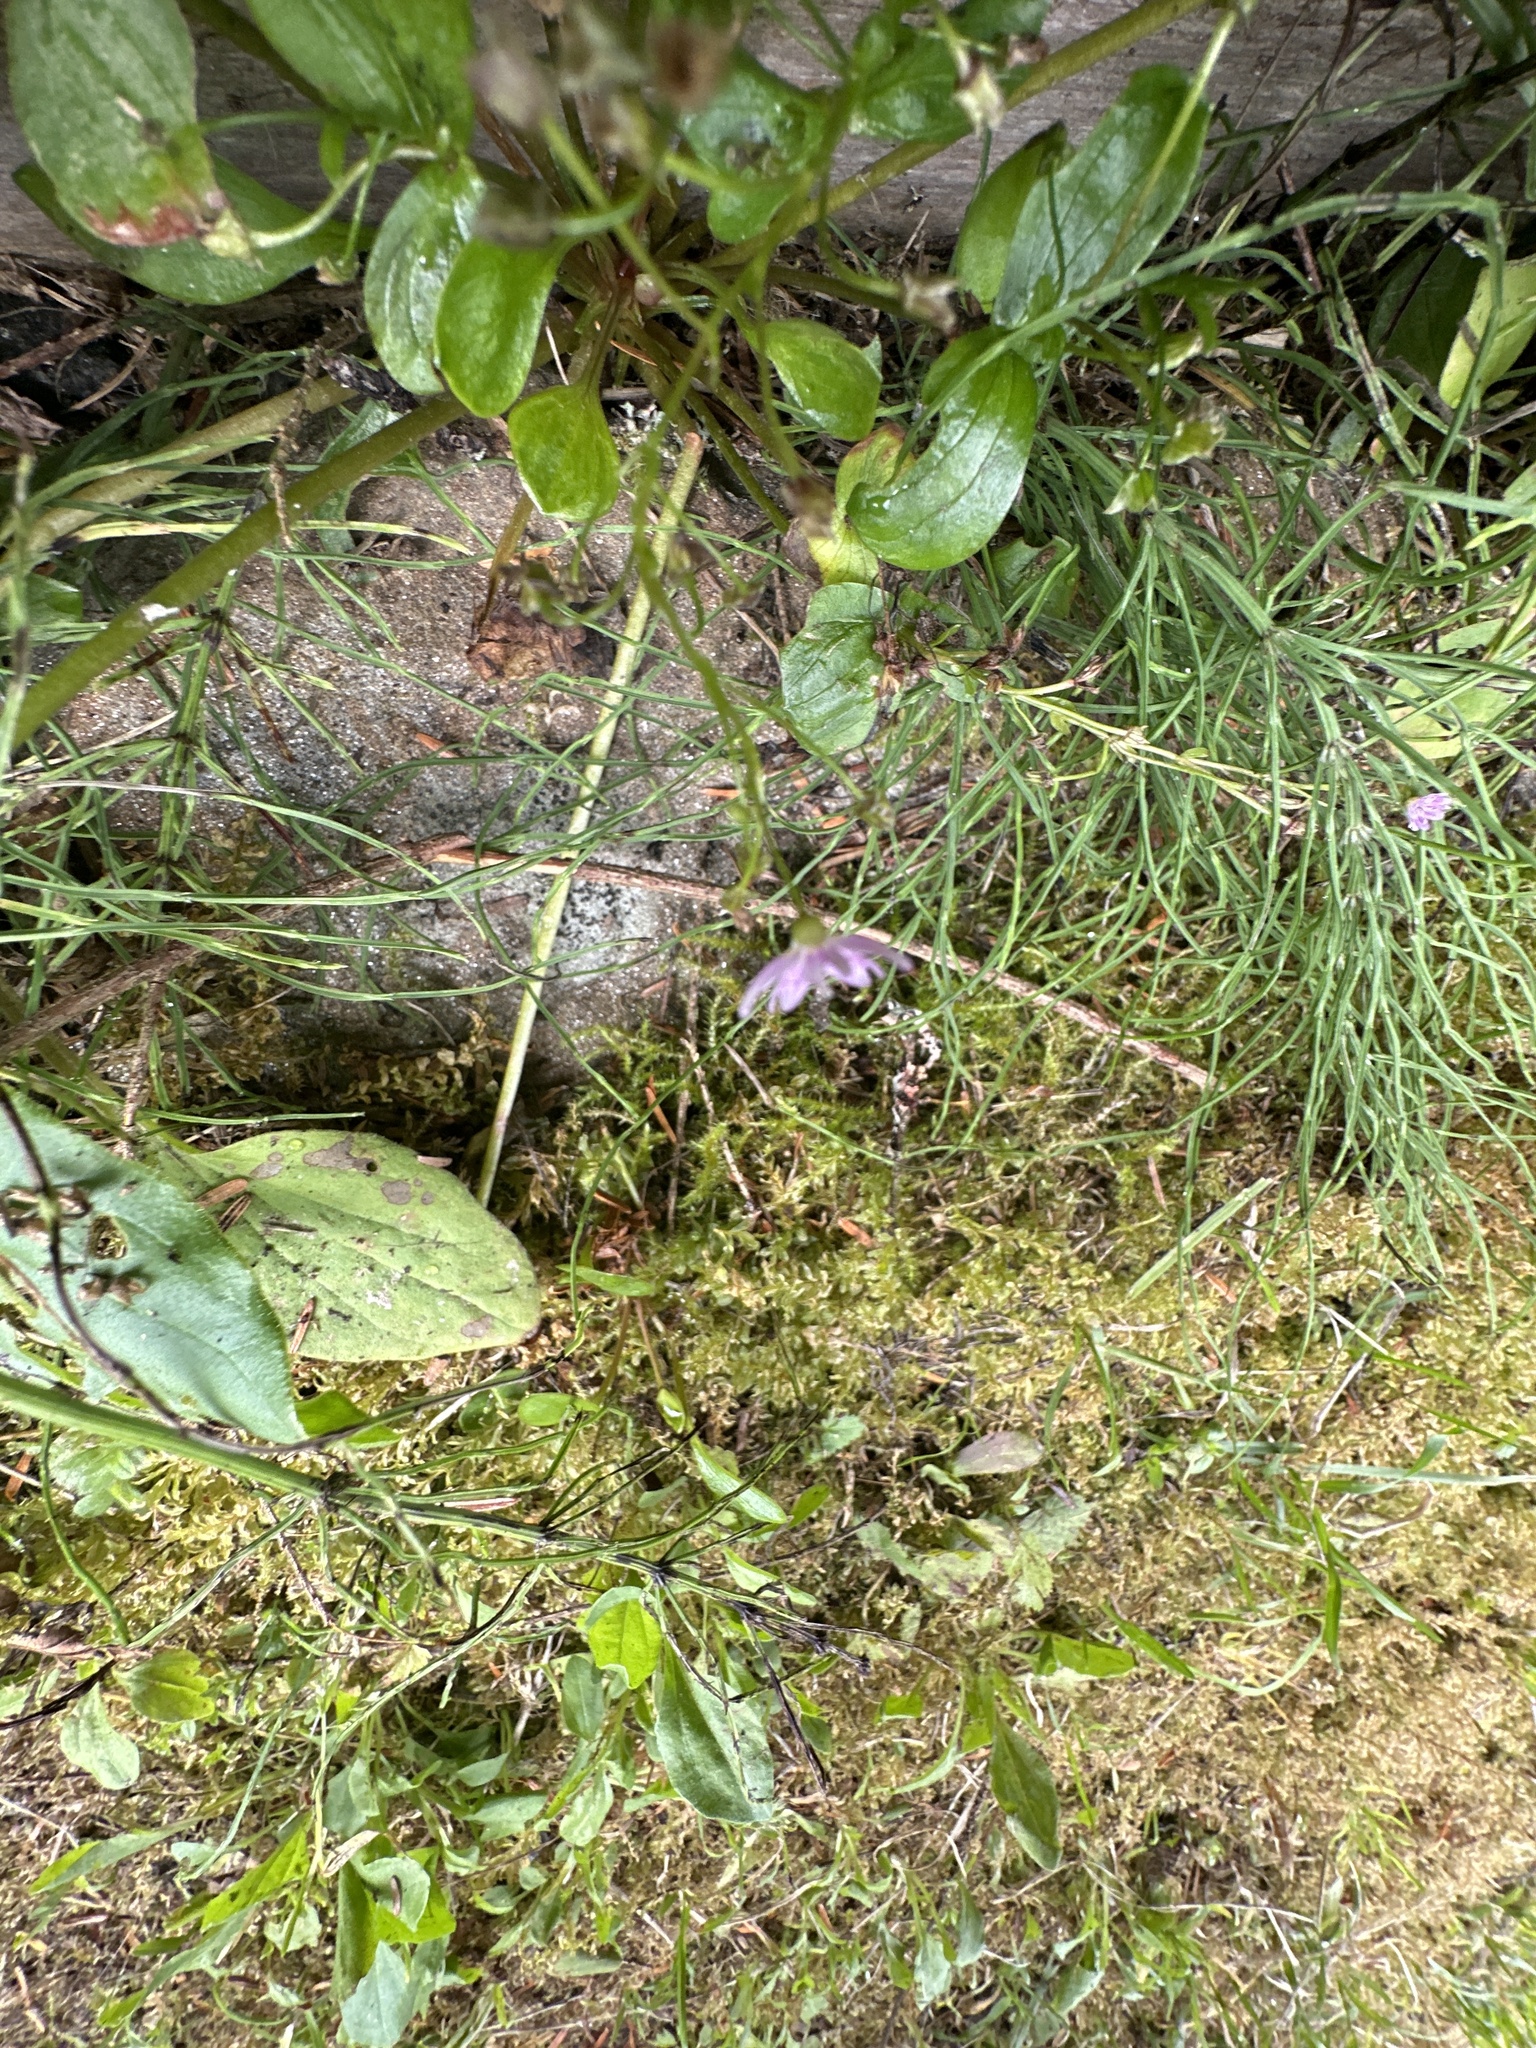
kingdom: Plantae
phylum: Tracheophyta
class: Magnoliopsida
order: Caryophyllales
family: Montiaceae
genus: Claytonia
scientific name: Claytonia sibirica
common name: Pink purslane
